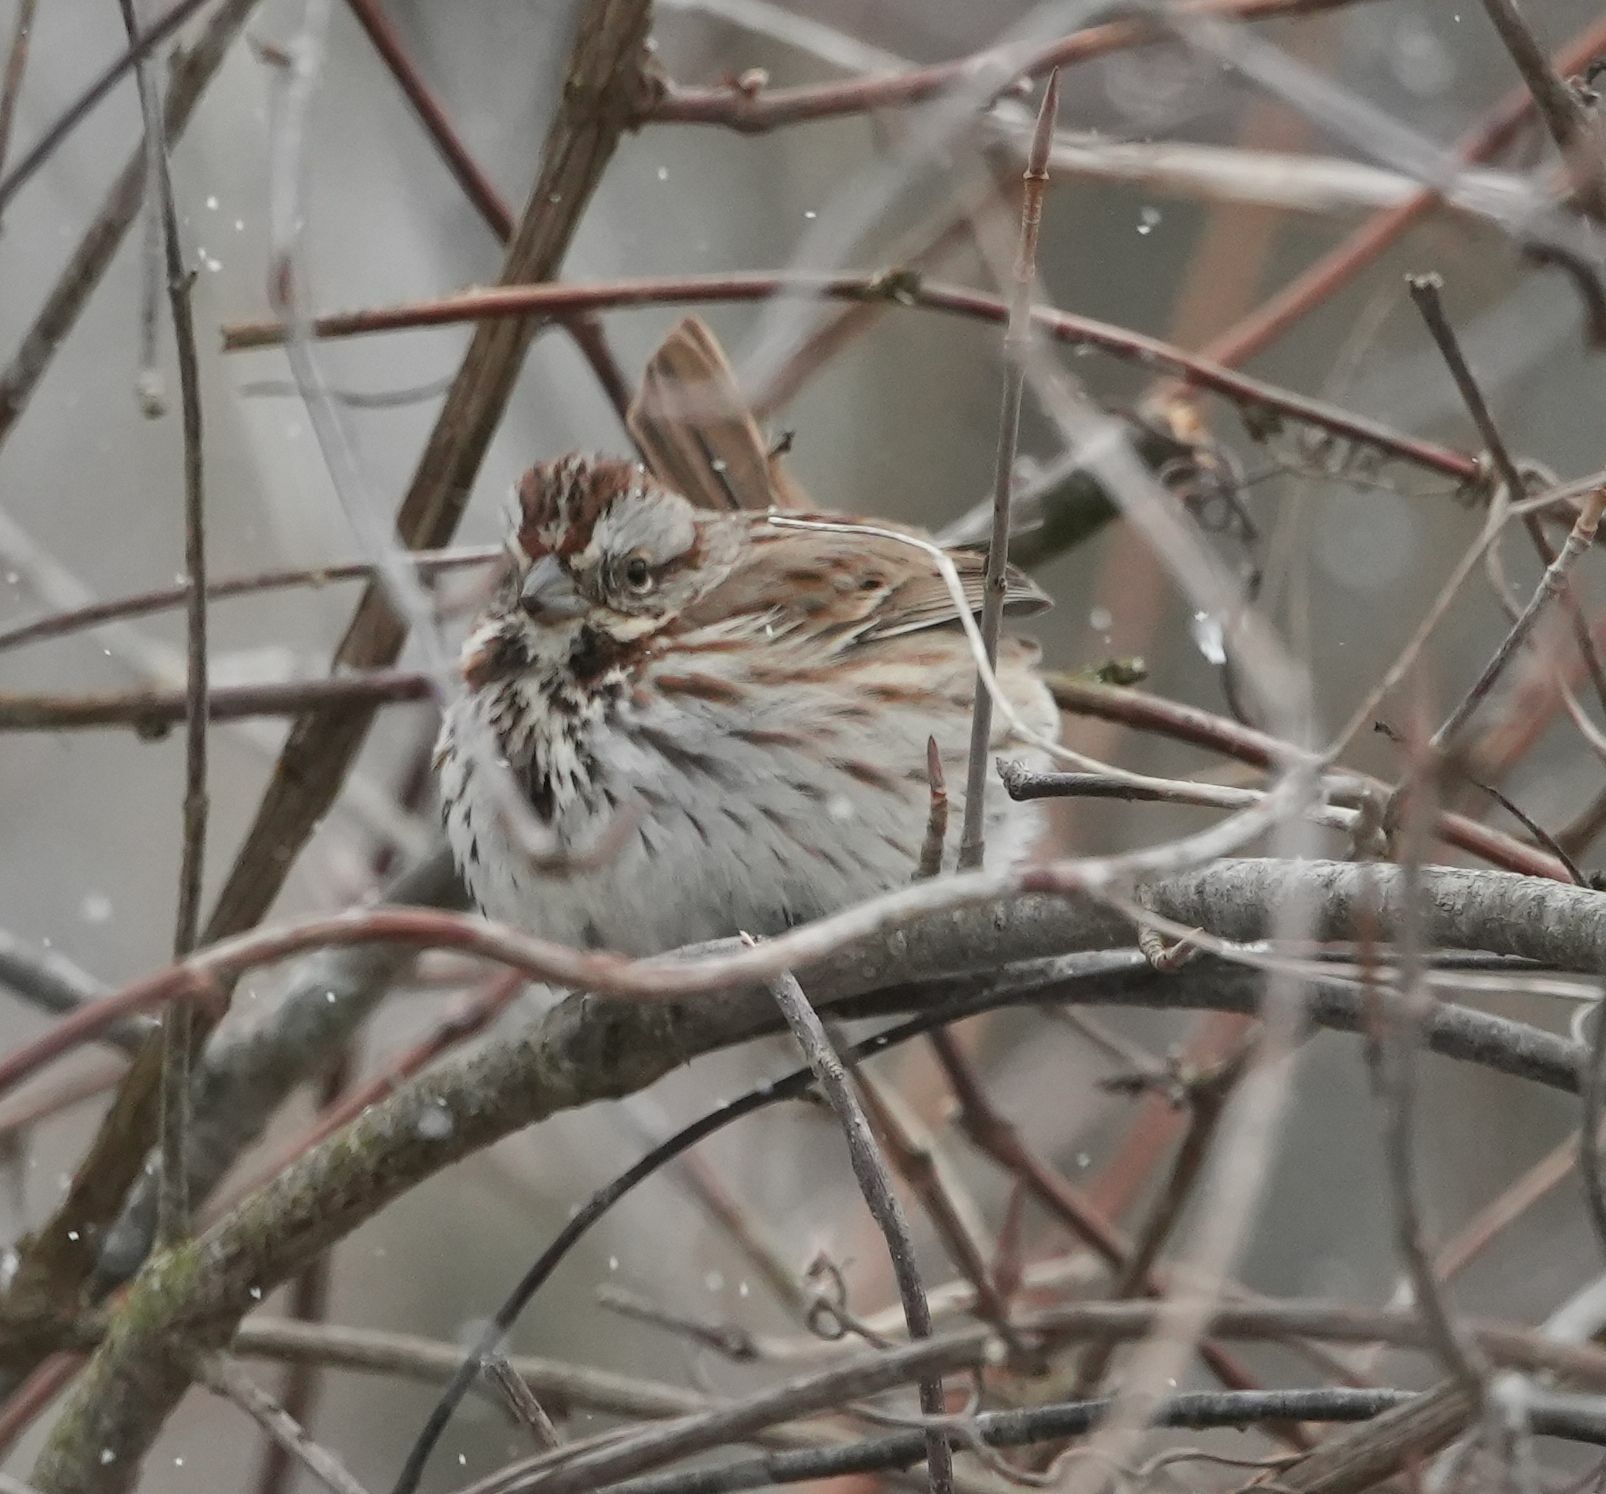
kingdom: Animalia
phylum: Chordata
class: Aves
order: Passeriformes
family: Passerellidae
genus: Melospiza
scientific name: Melospiza melodia
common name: Song sparrow
